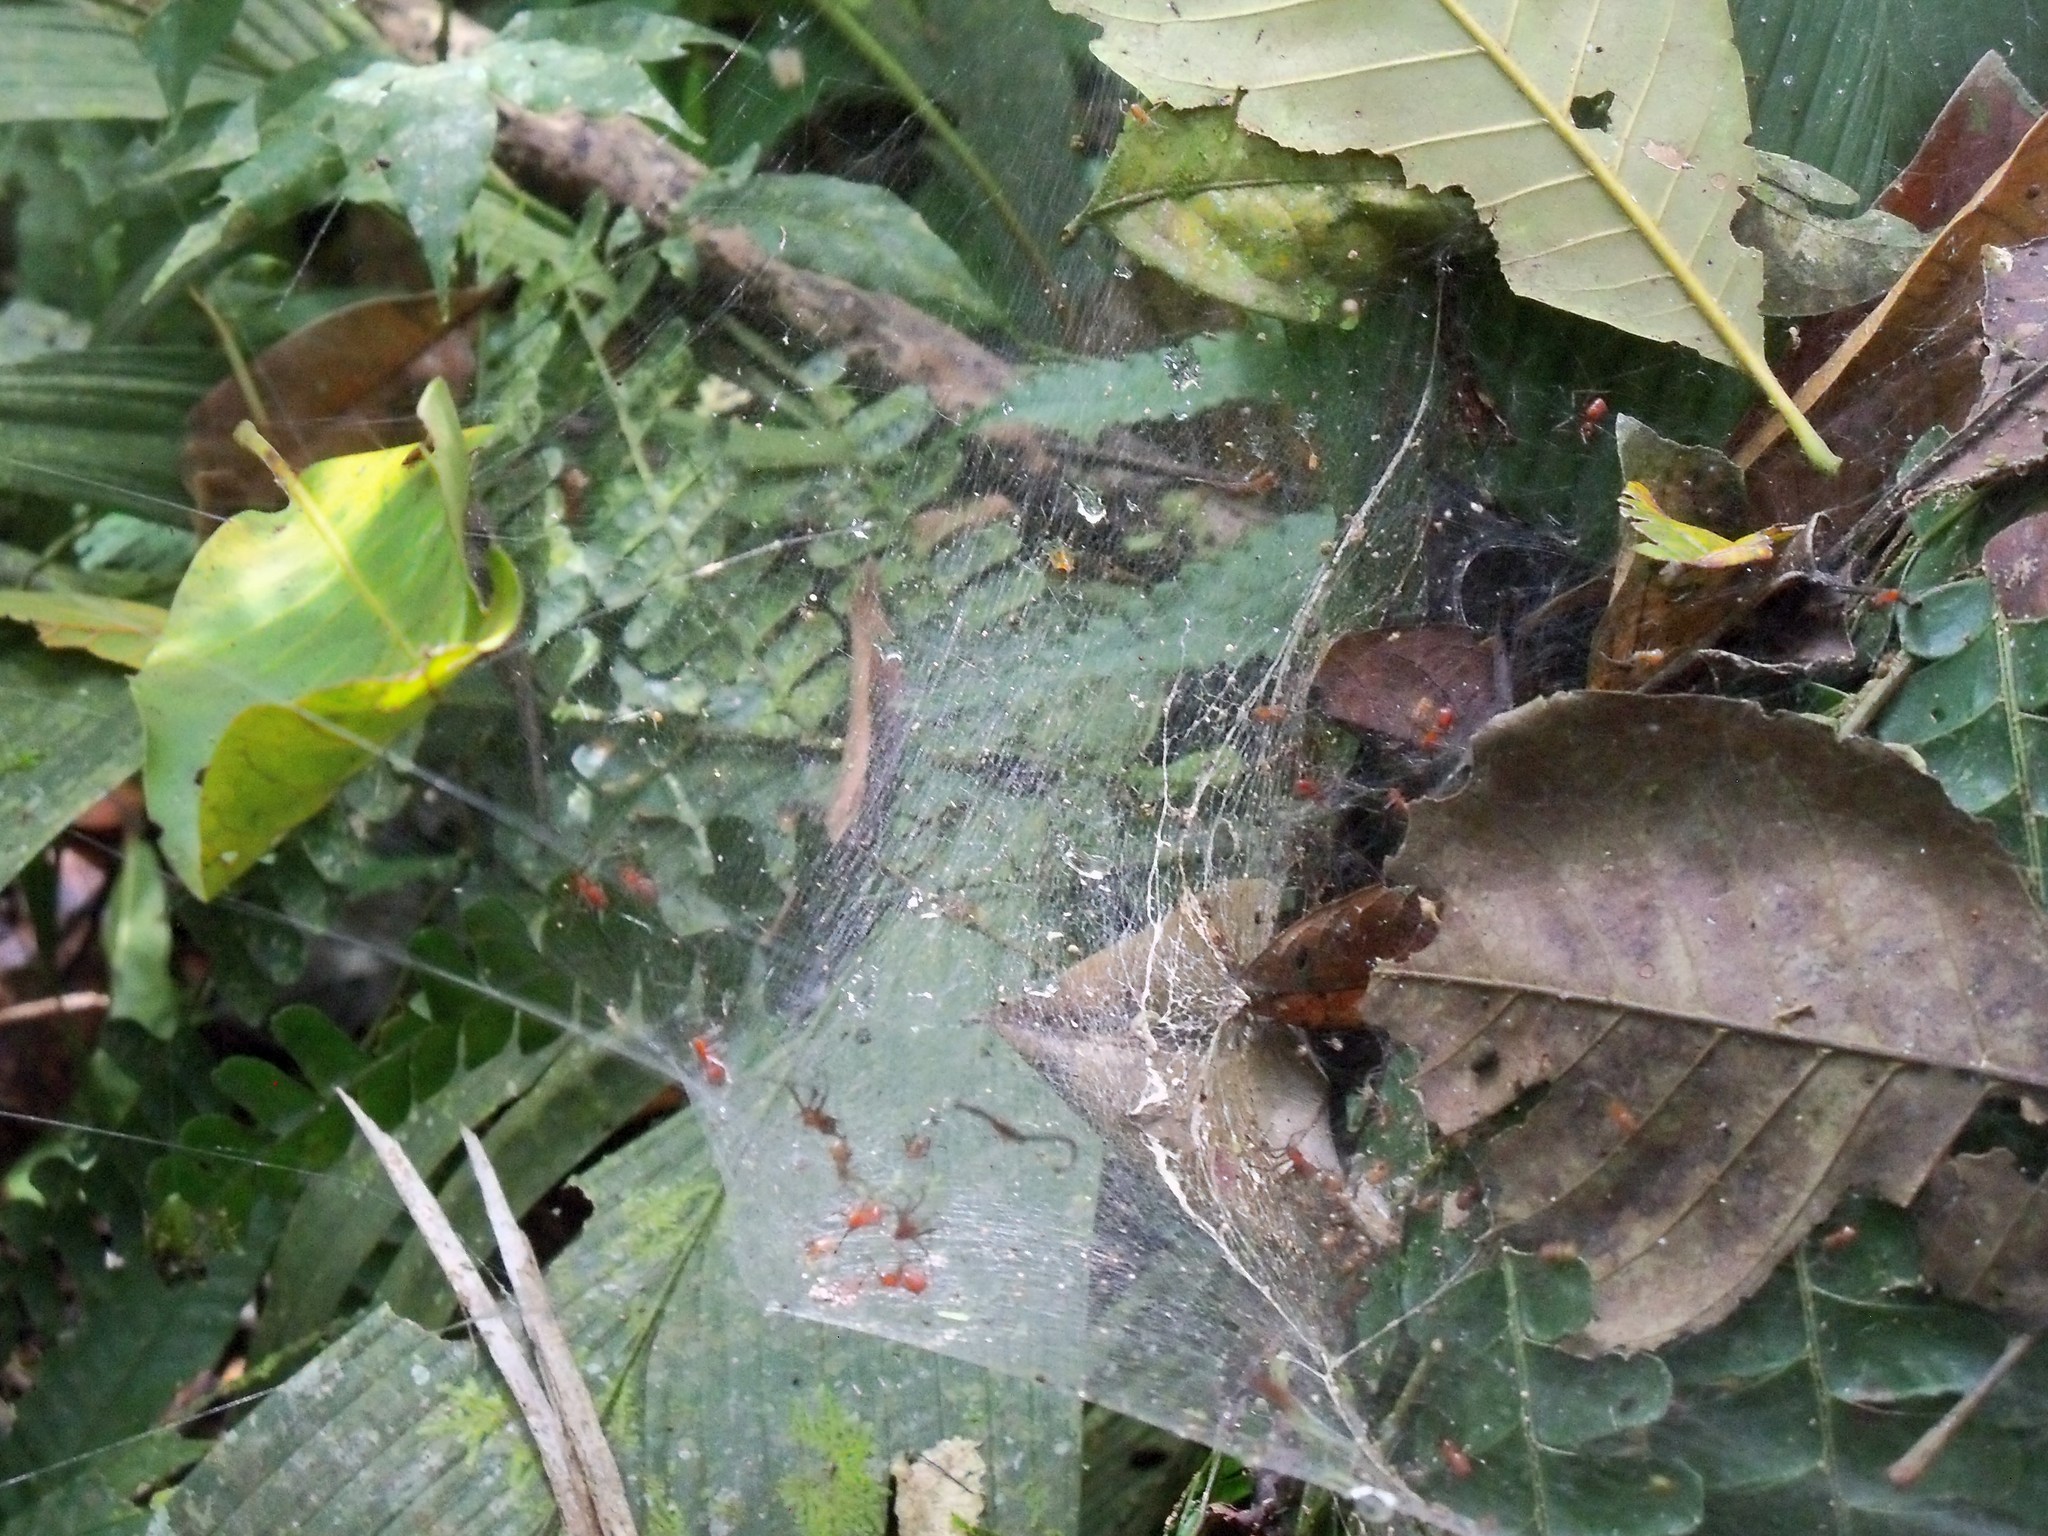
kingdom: Animalia
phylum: Arthropoda
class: Arachnida
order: Araneae
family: Theridiidae
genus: Anelosimus
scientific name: Anelosimus eximius
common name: Cobweb spiders
